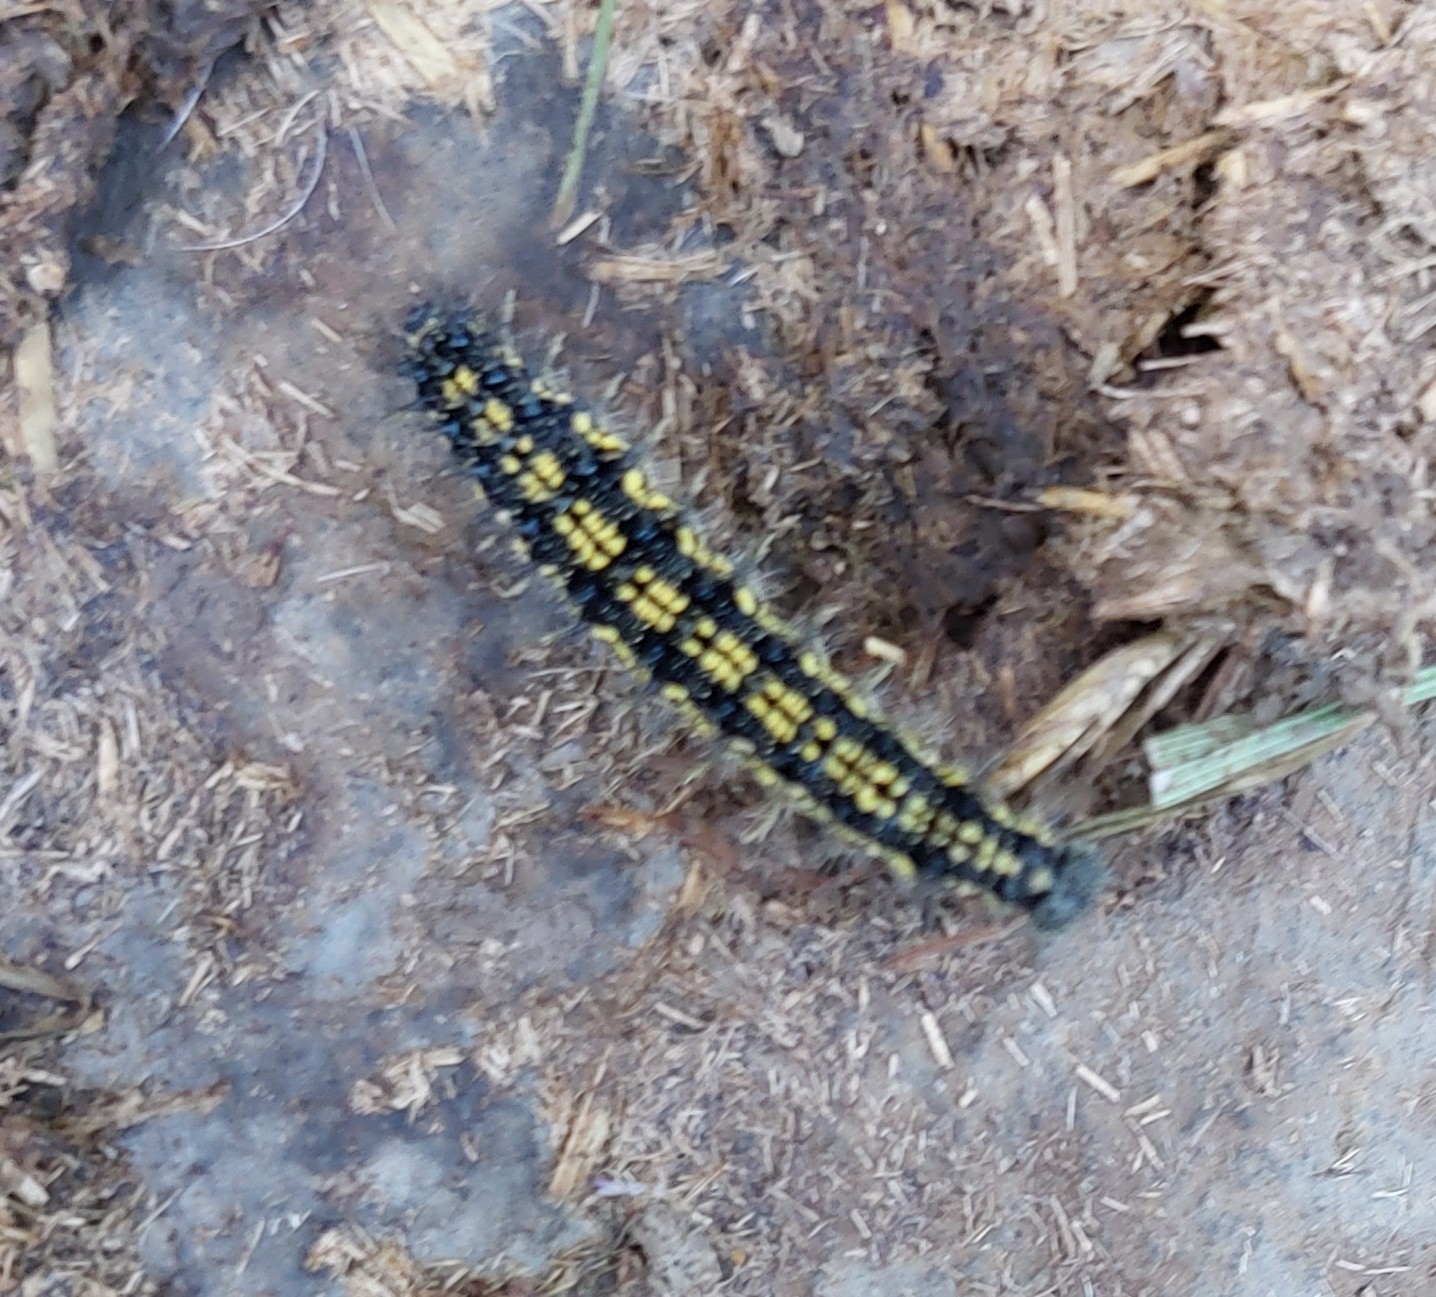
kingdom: Animalia
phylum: Arthropoda
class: Insecta
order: Lepidoptera
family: Nymphalidae
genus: Aglais
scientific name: Aglais urticae
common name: Small tortoiseshell
